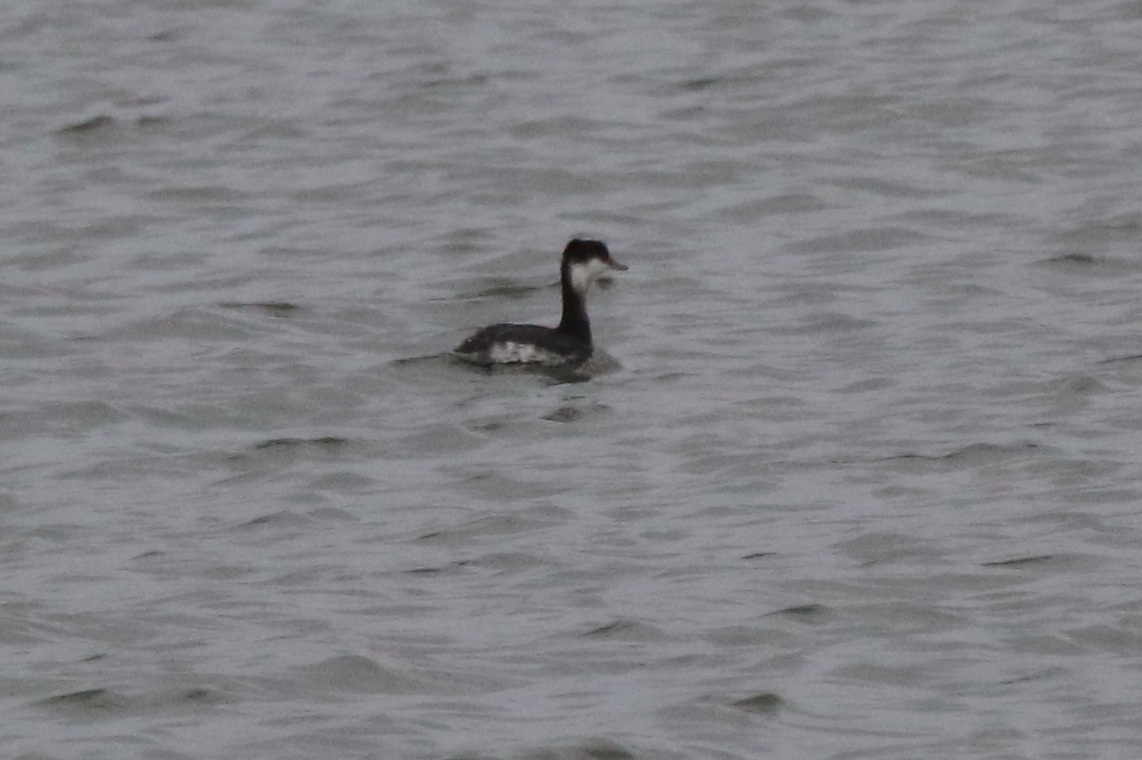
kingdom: Animalia
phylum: Chordata
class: Aves
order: Podicipediformes
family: Podicipedidae
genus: Podiceps
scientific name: Podiceps auritus
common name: Horned grebe
